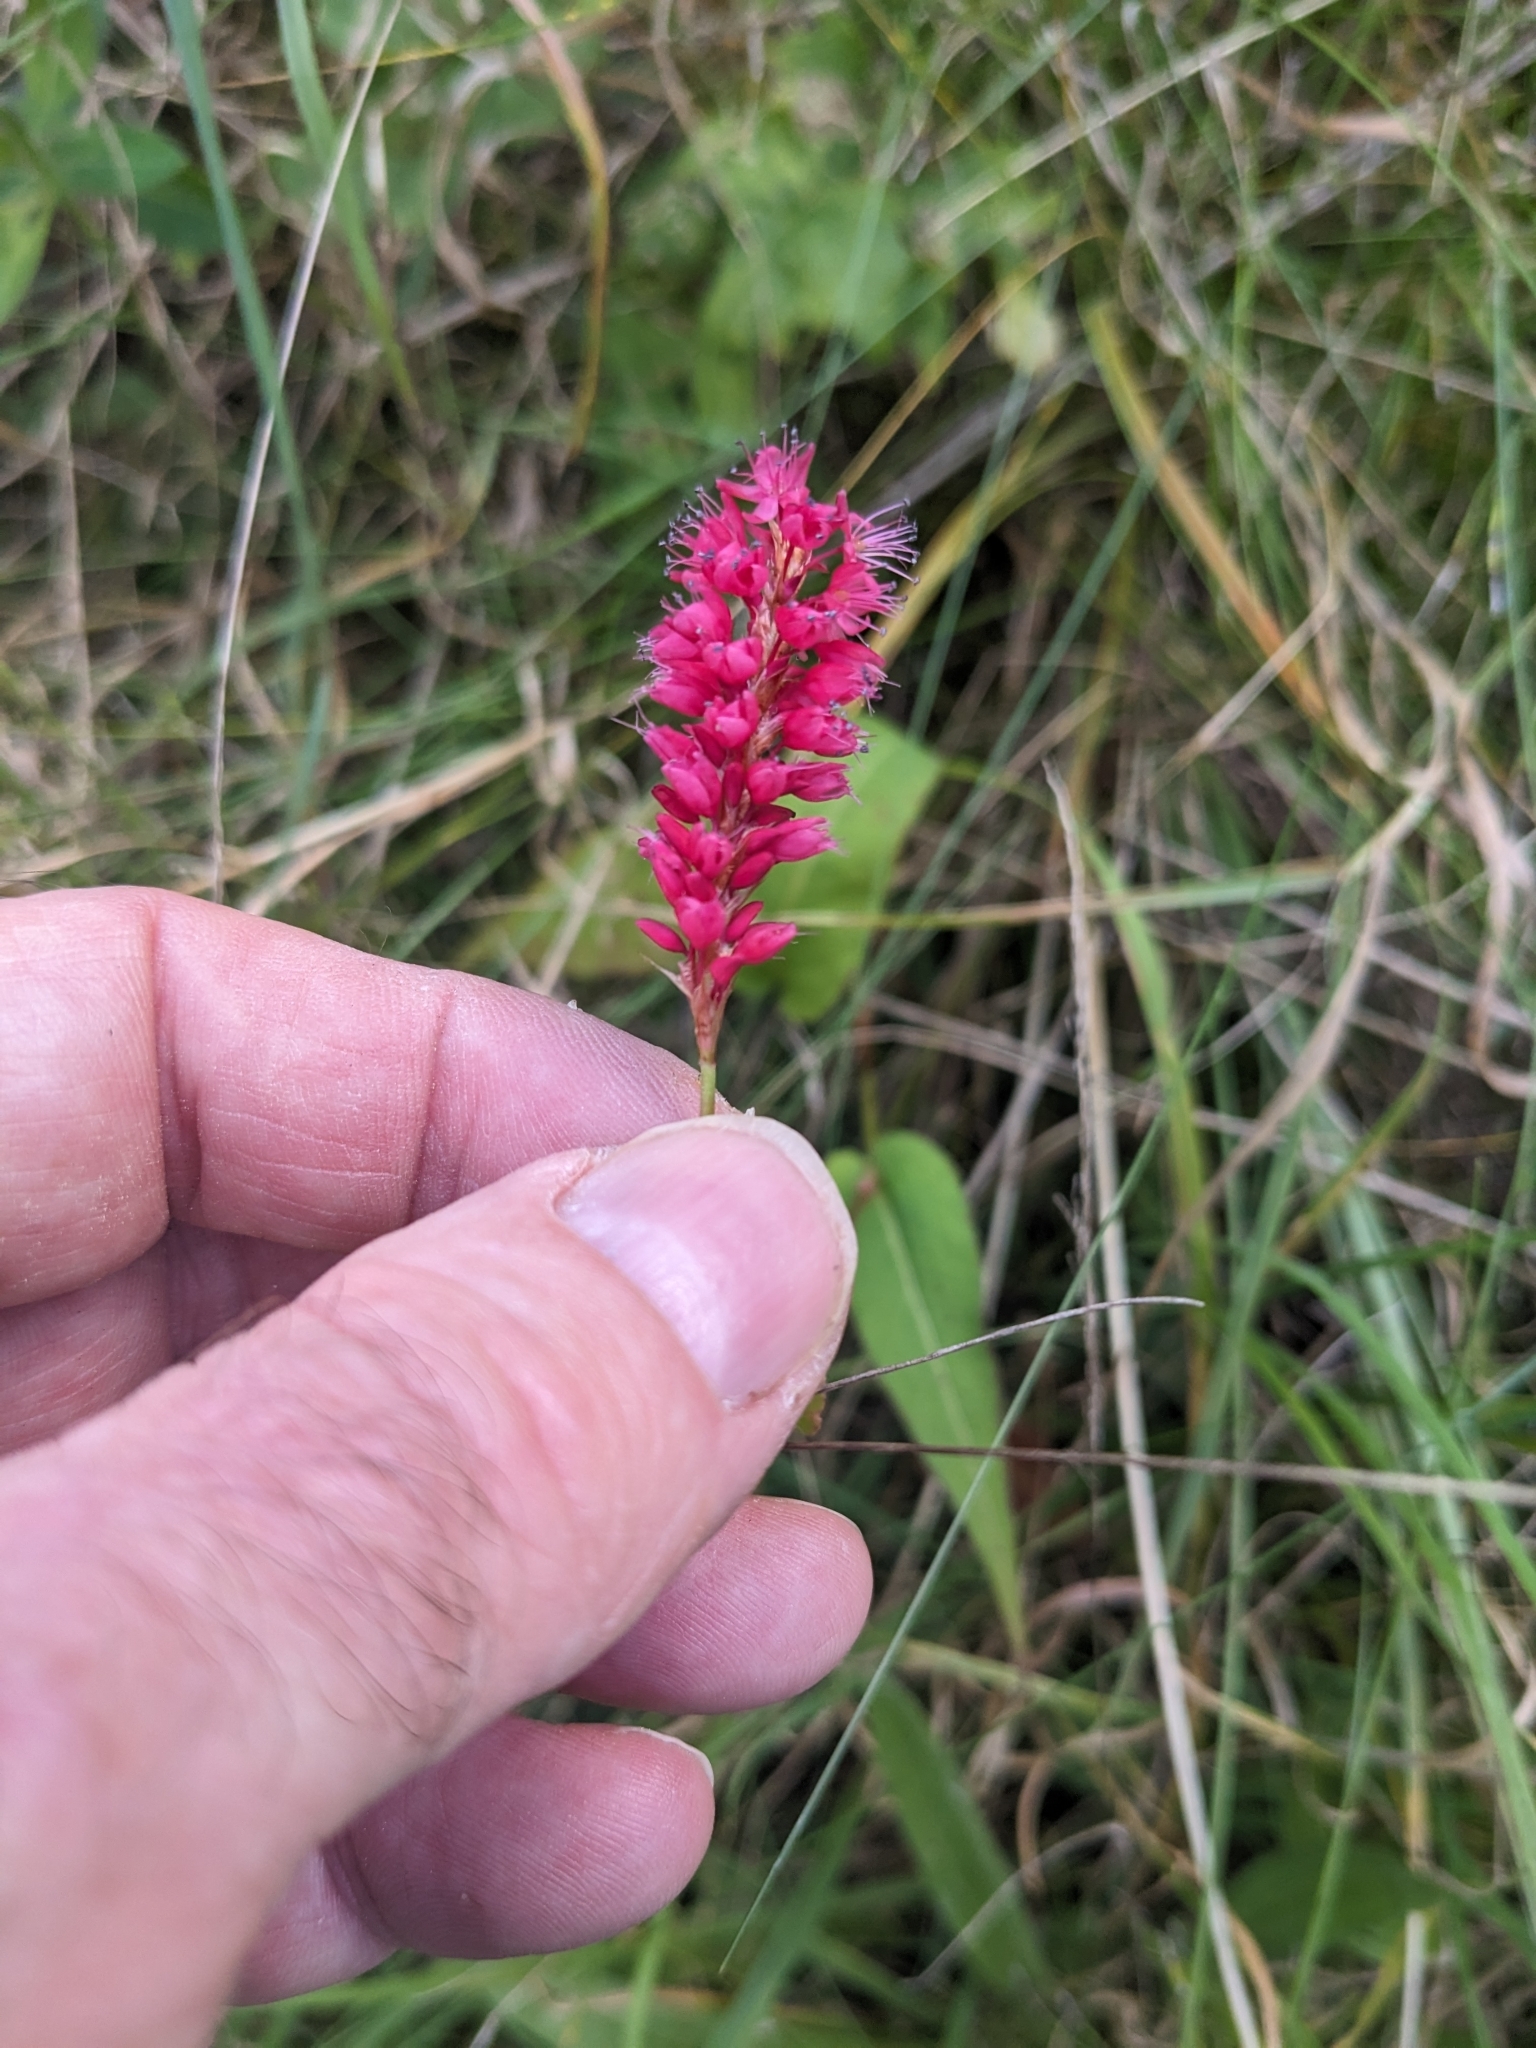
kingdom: Plantae
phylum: Tracheophyta
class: Magnoliopsida
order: Caryophyllales
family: Polygonaceae
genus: Bistorta
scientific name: Bistorta amplexicaulis
